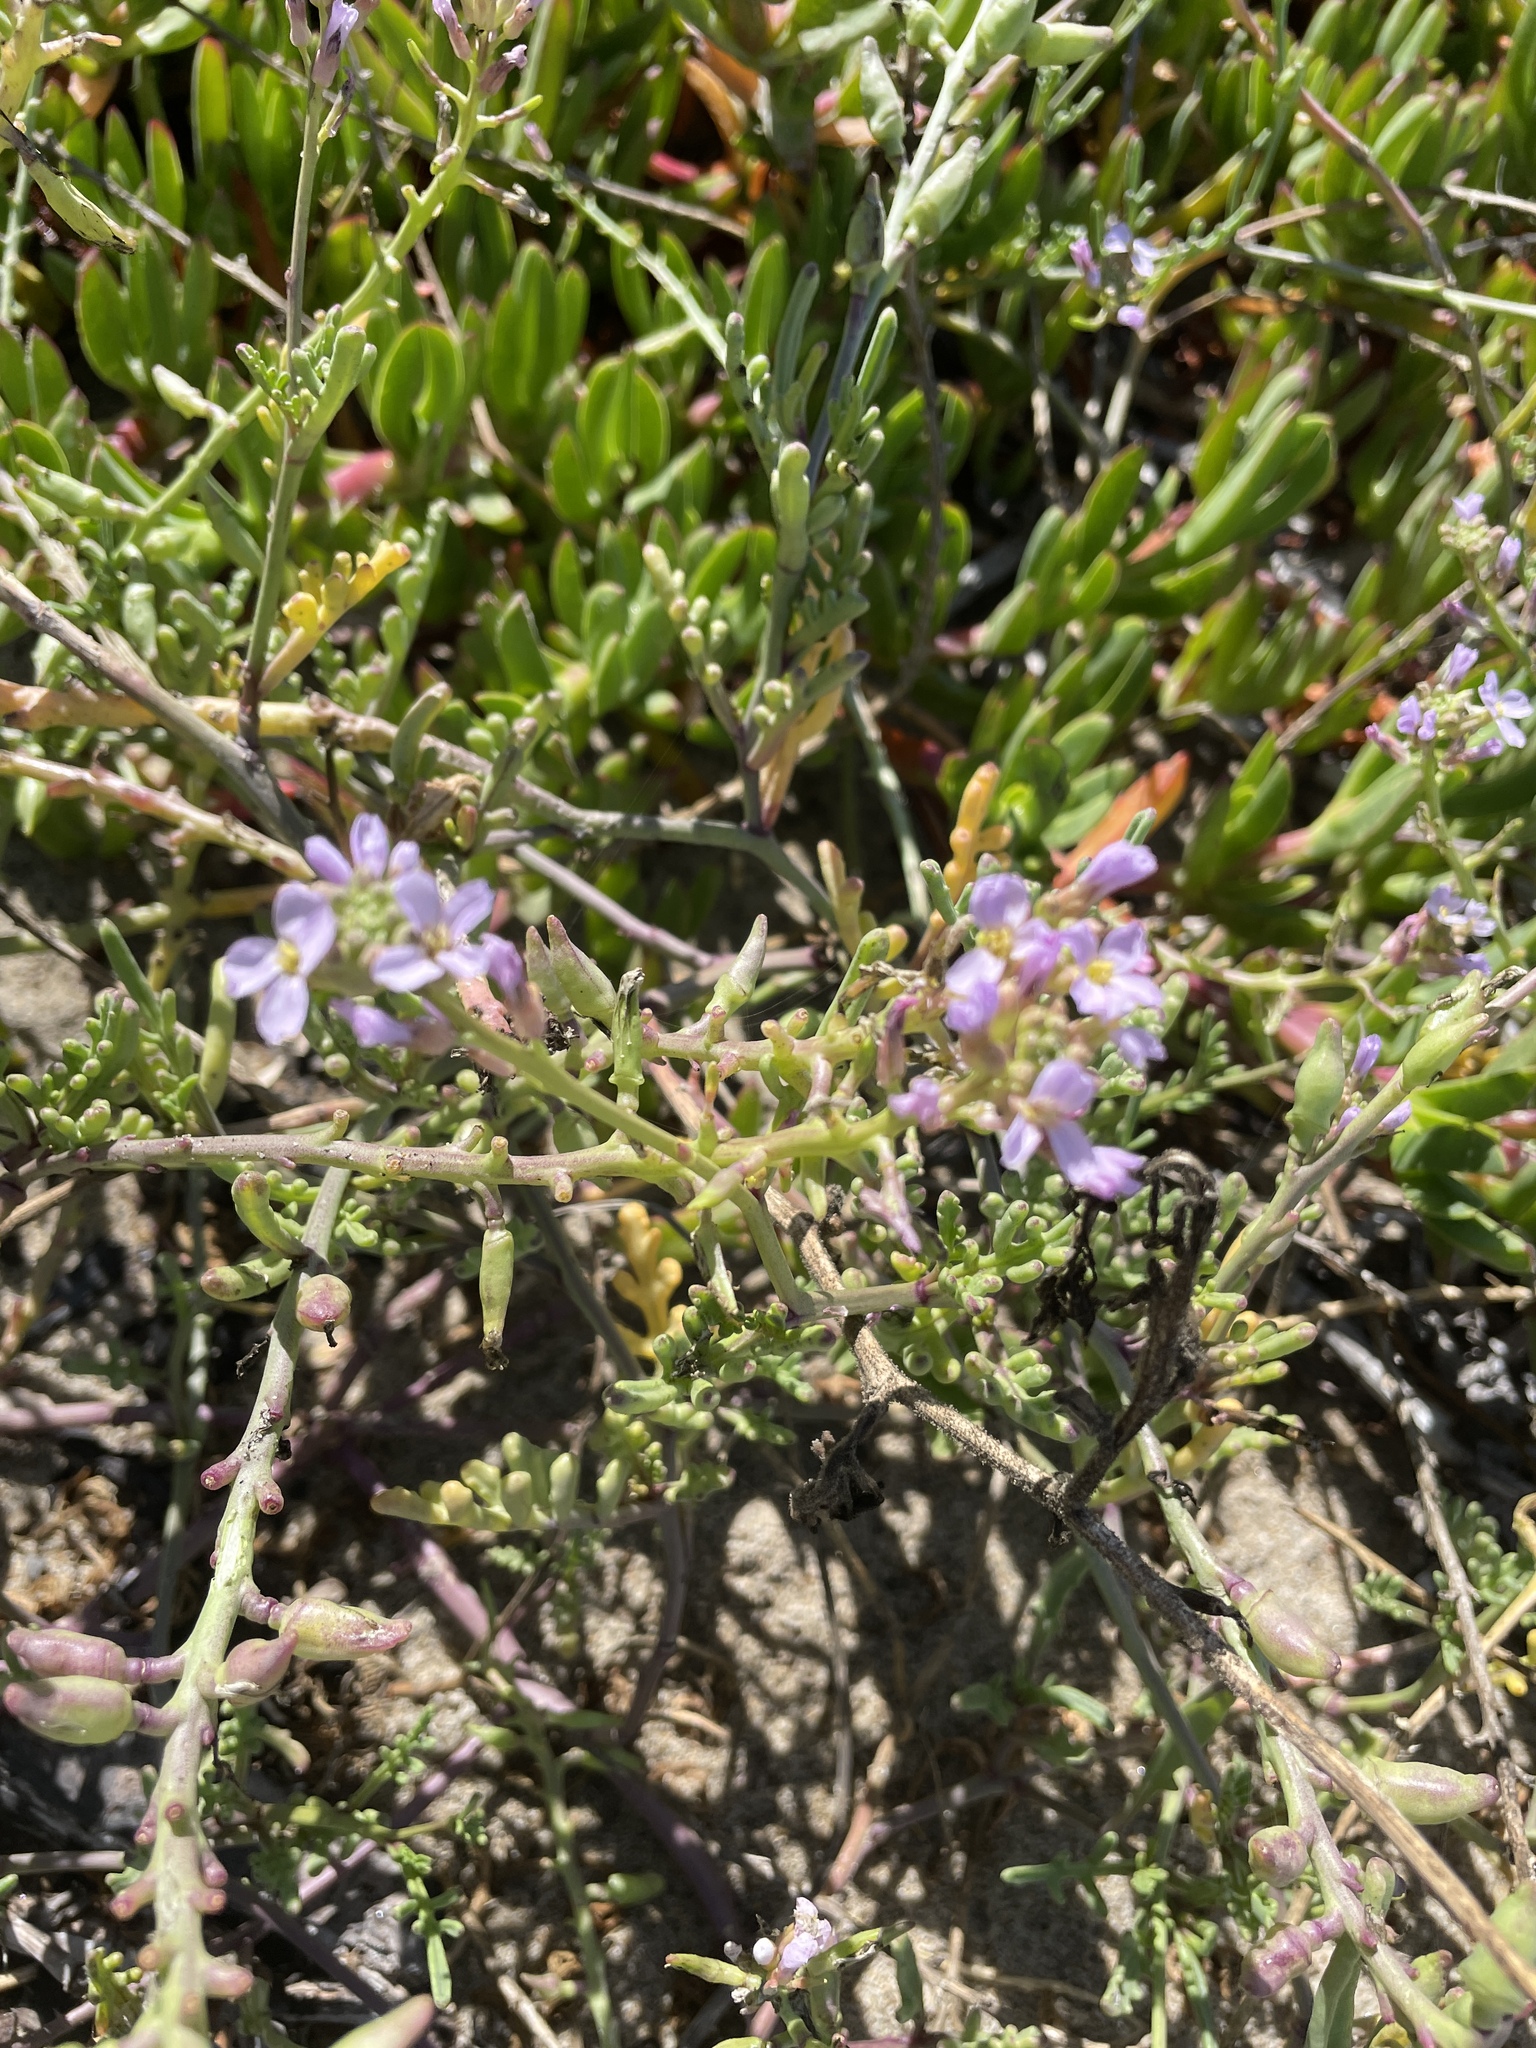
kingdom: Plantae
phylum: Tracheophyta
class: Magnoliopsida
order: Brassicales
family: Brassicaceae
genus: Cakile
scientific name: Cakile maritima
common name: Sea rocket
